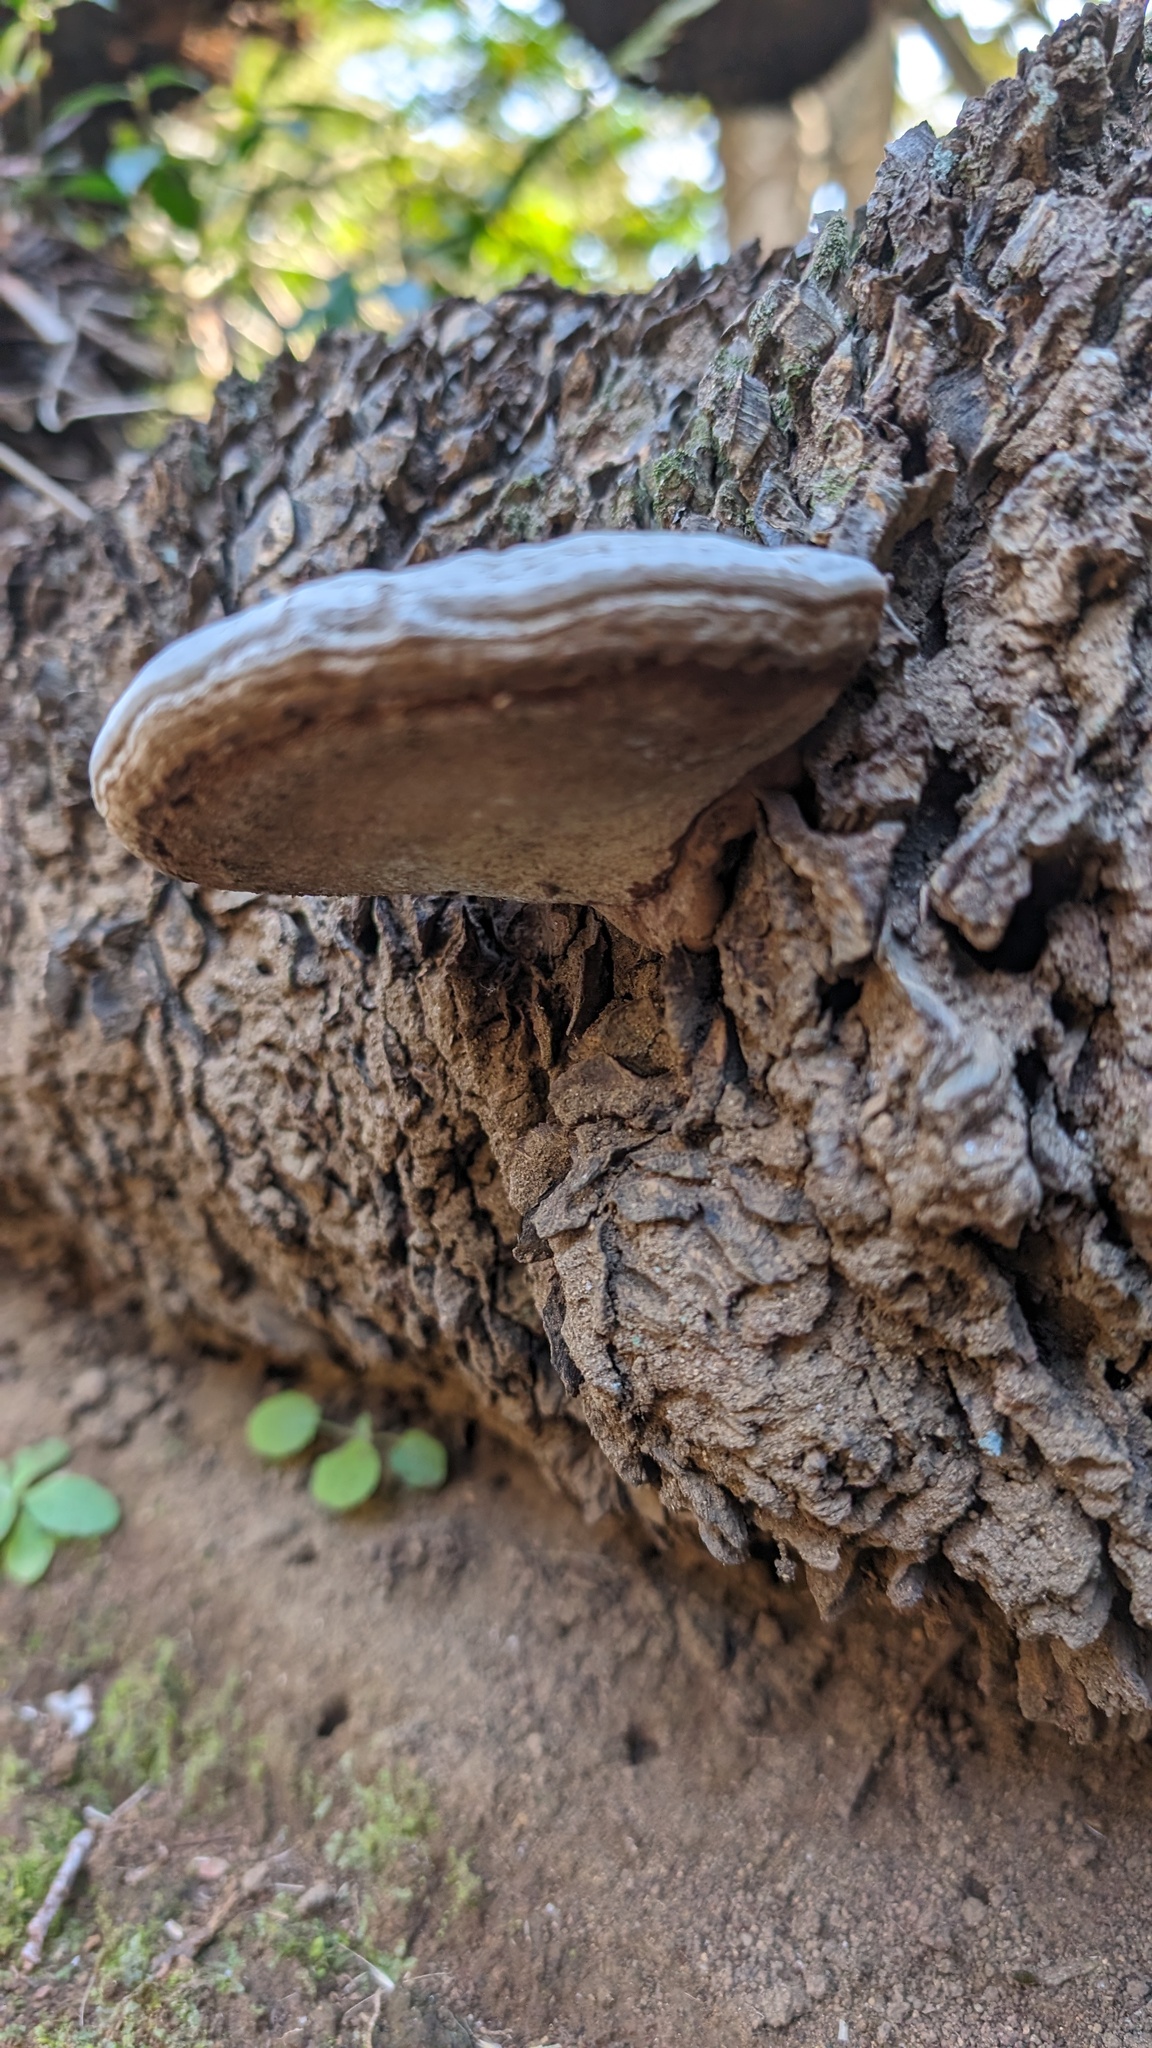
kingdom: Fungi
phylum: Basidiomycota
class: Agaricomycetes
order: Polyporales
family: Polyporaceae
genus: Ganoderma
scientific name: Ganoderma applanatum
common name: Artist's bracket
